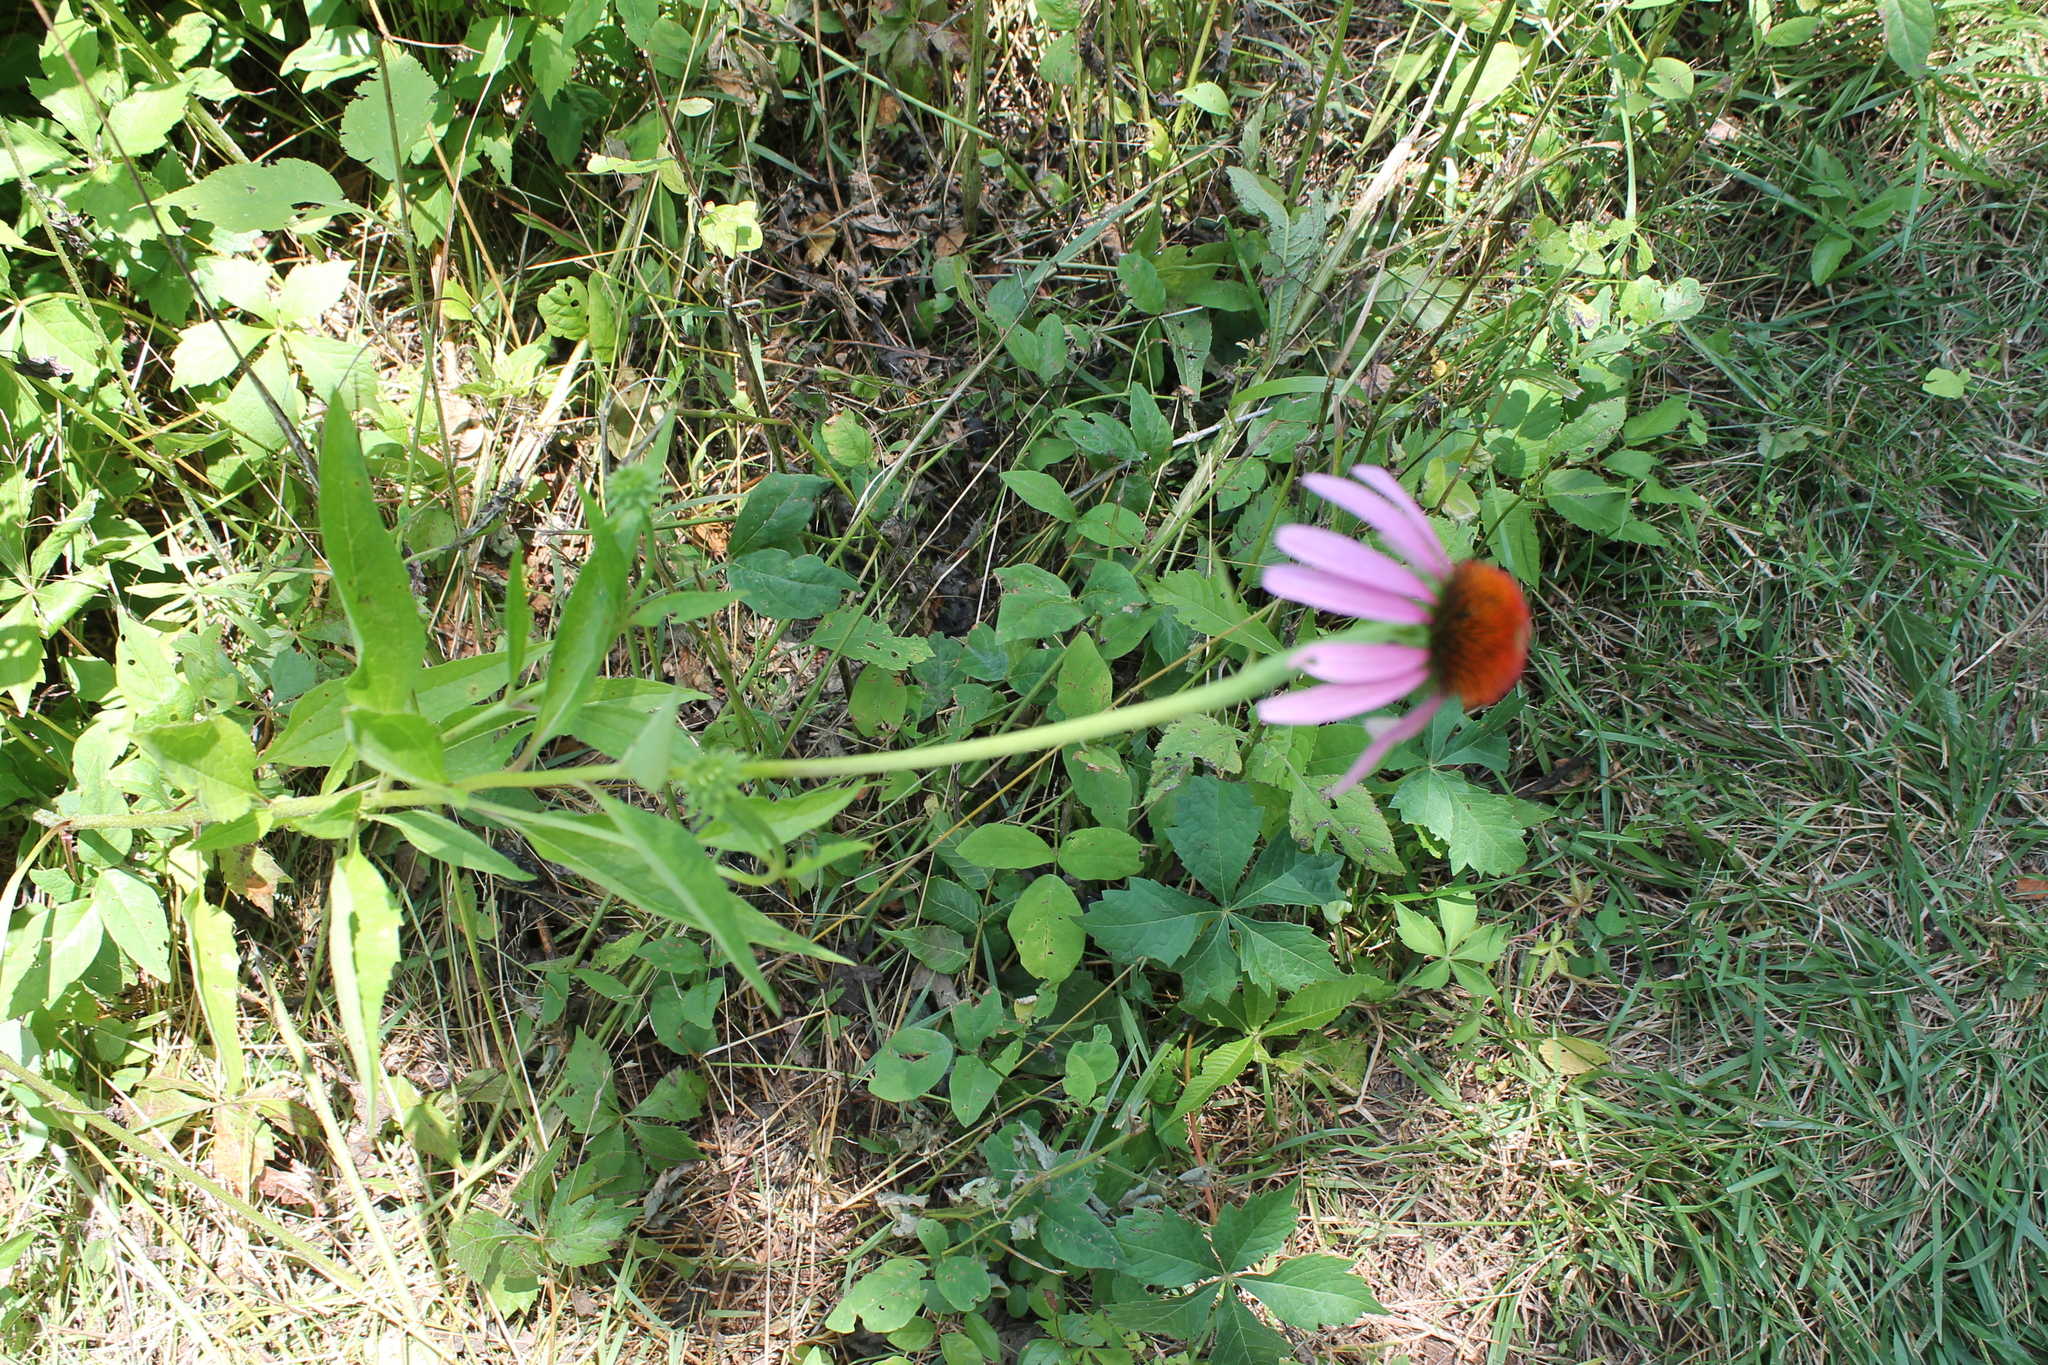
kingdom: Plantae
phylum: Tracheophyta
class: Magnoliopsida
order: Asterales
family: Asteraceae
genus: Echinacea
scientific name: Echinacea purpurea
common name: Broad-leaved purple coneflower
